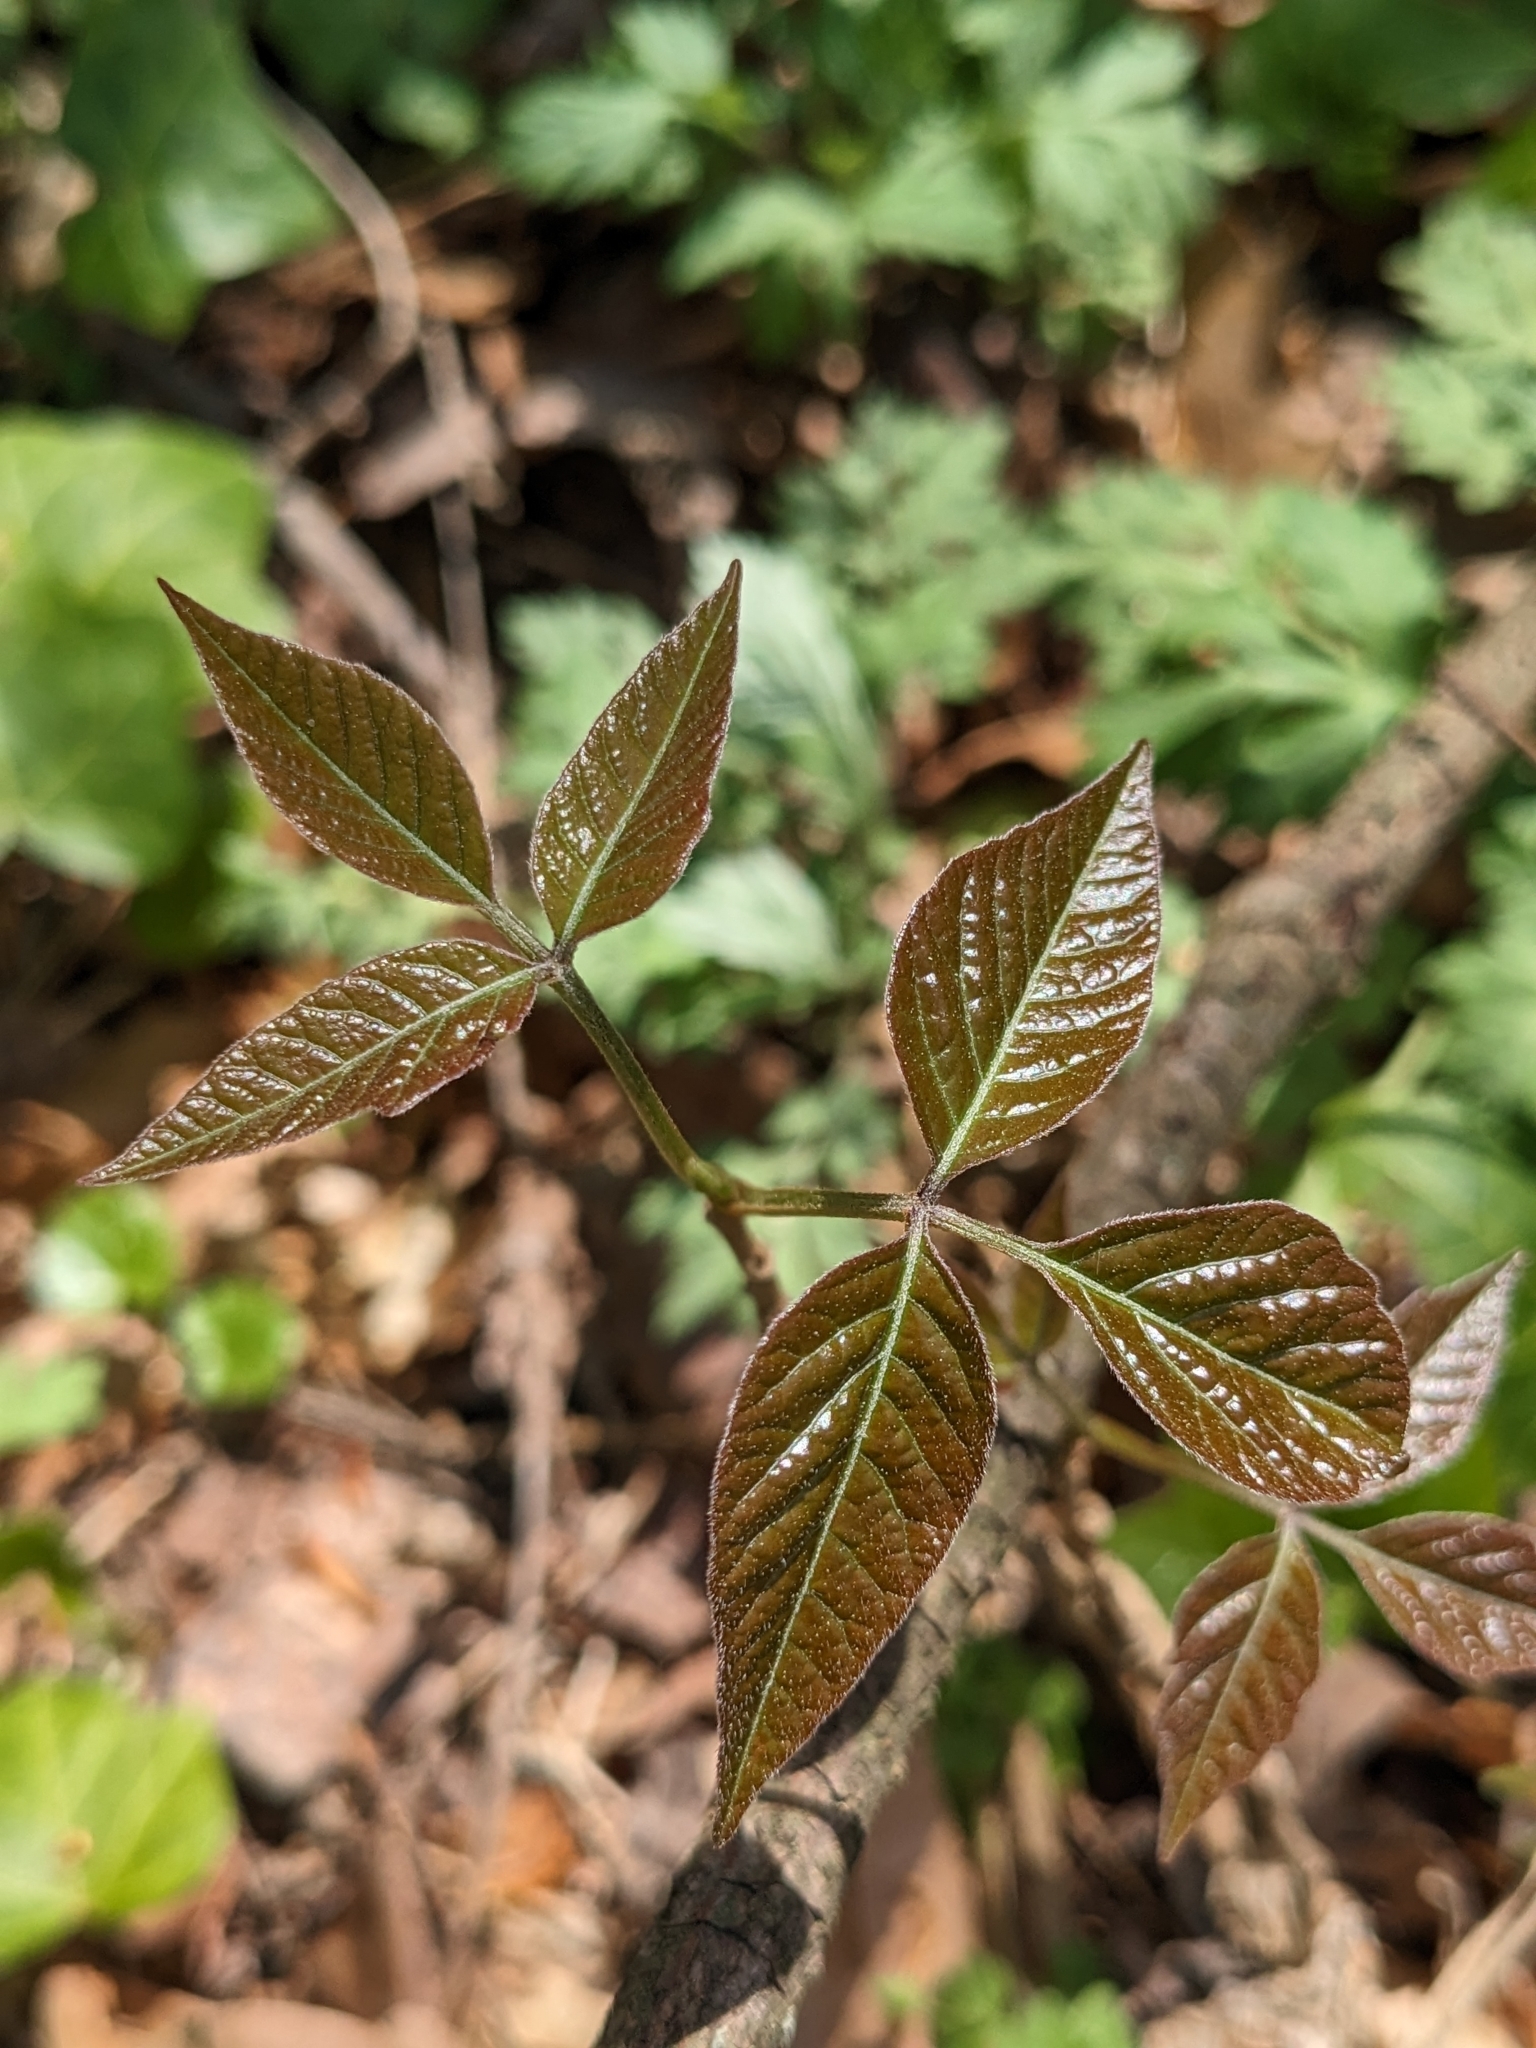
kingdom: Plantae
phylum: Tracheophyta
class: Magnoliopsida
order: Sapindales
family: Anacardiaceae
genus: Toxicodendron
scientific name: Toxicodendron radicans
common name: Poison ivy
